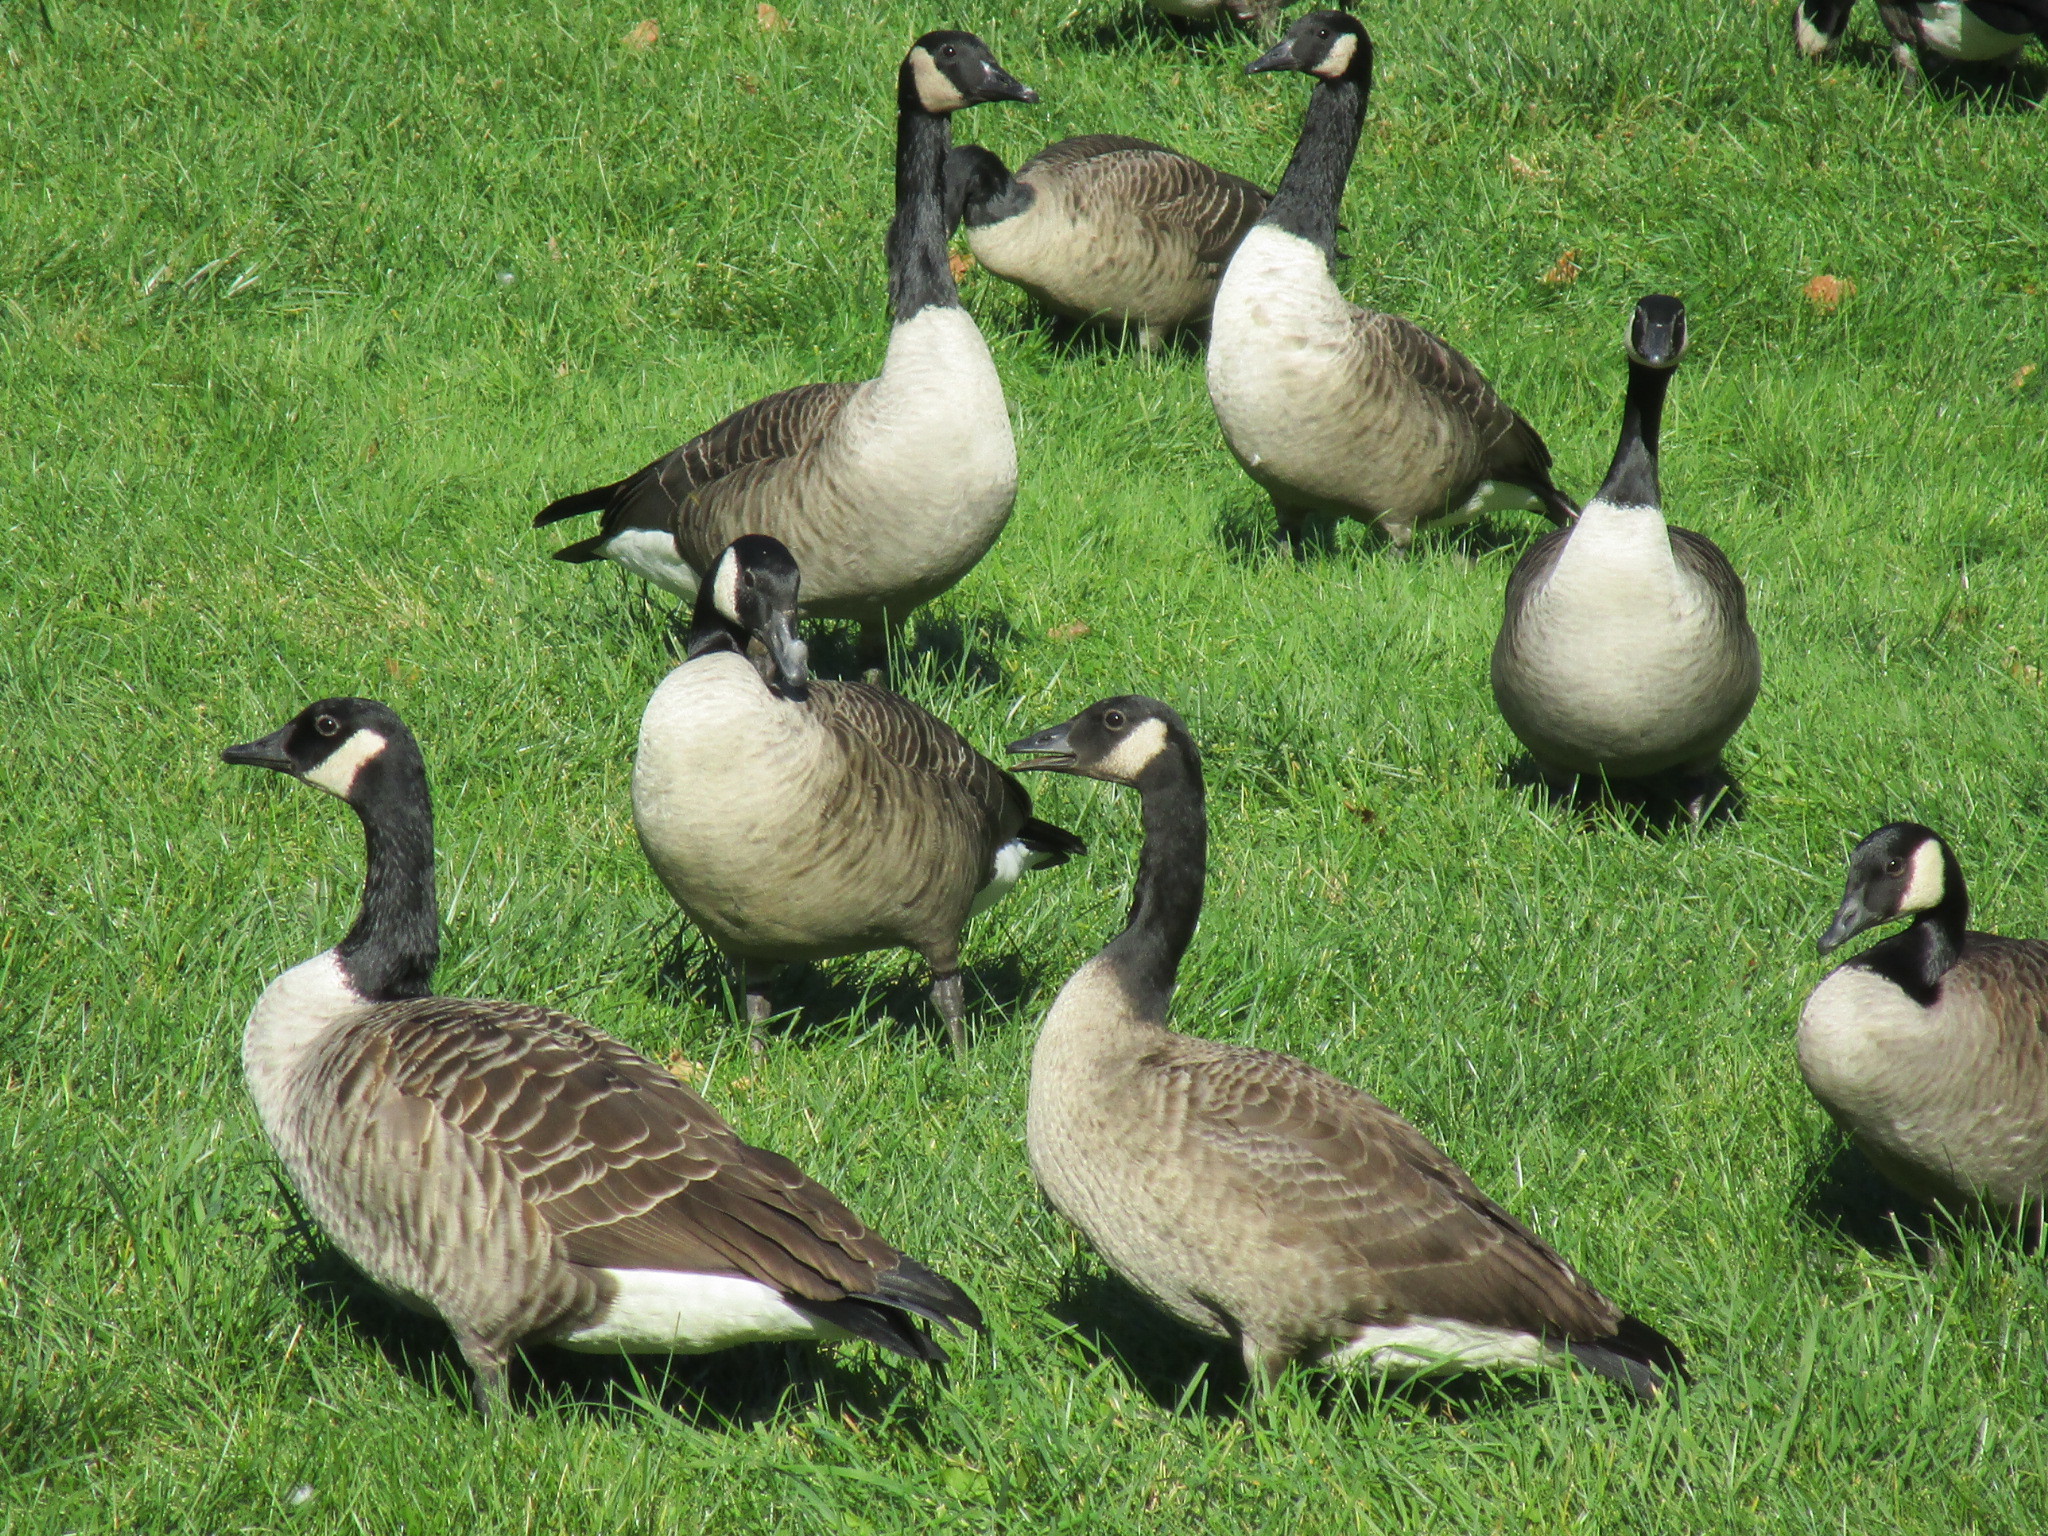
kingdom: Animalia
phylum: Chordata
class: Aves
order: Anseriformes
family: Anatidae
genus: Branta
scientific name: Branta canadensis
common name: Canada goose
